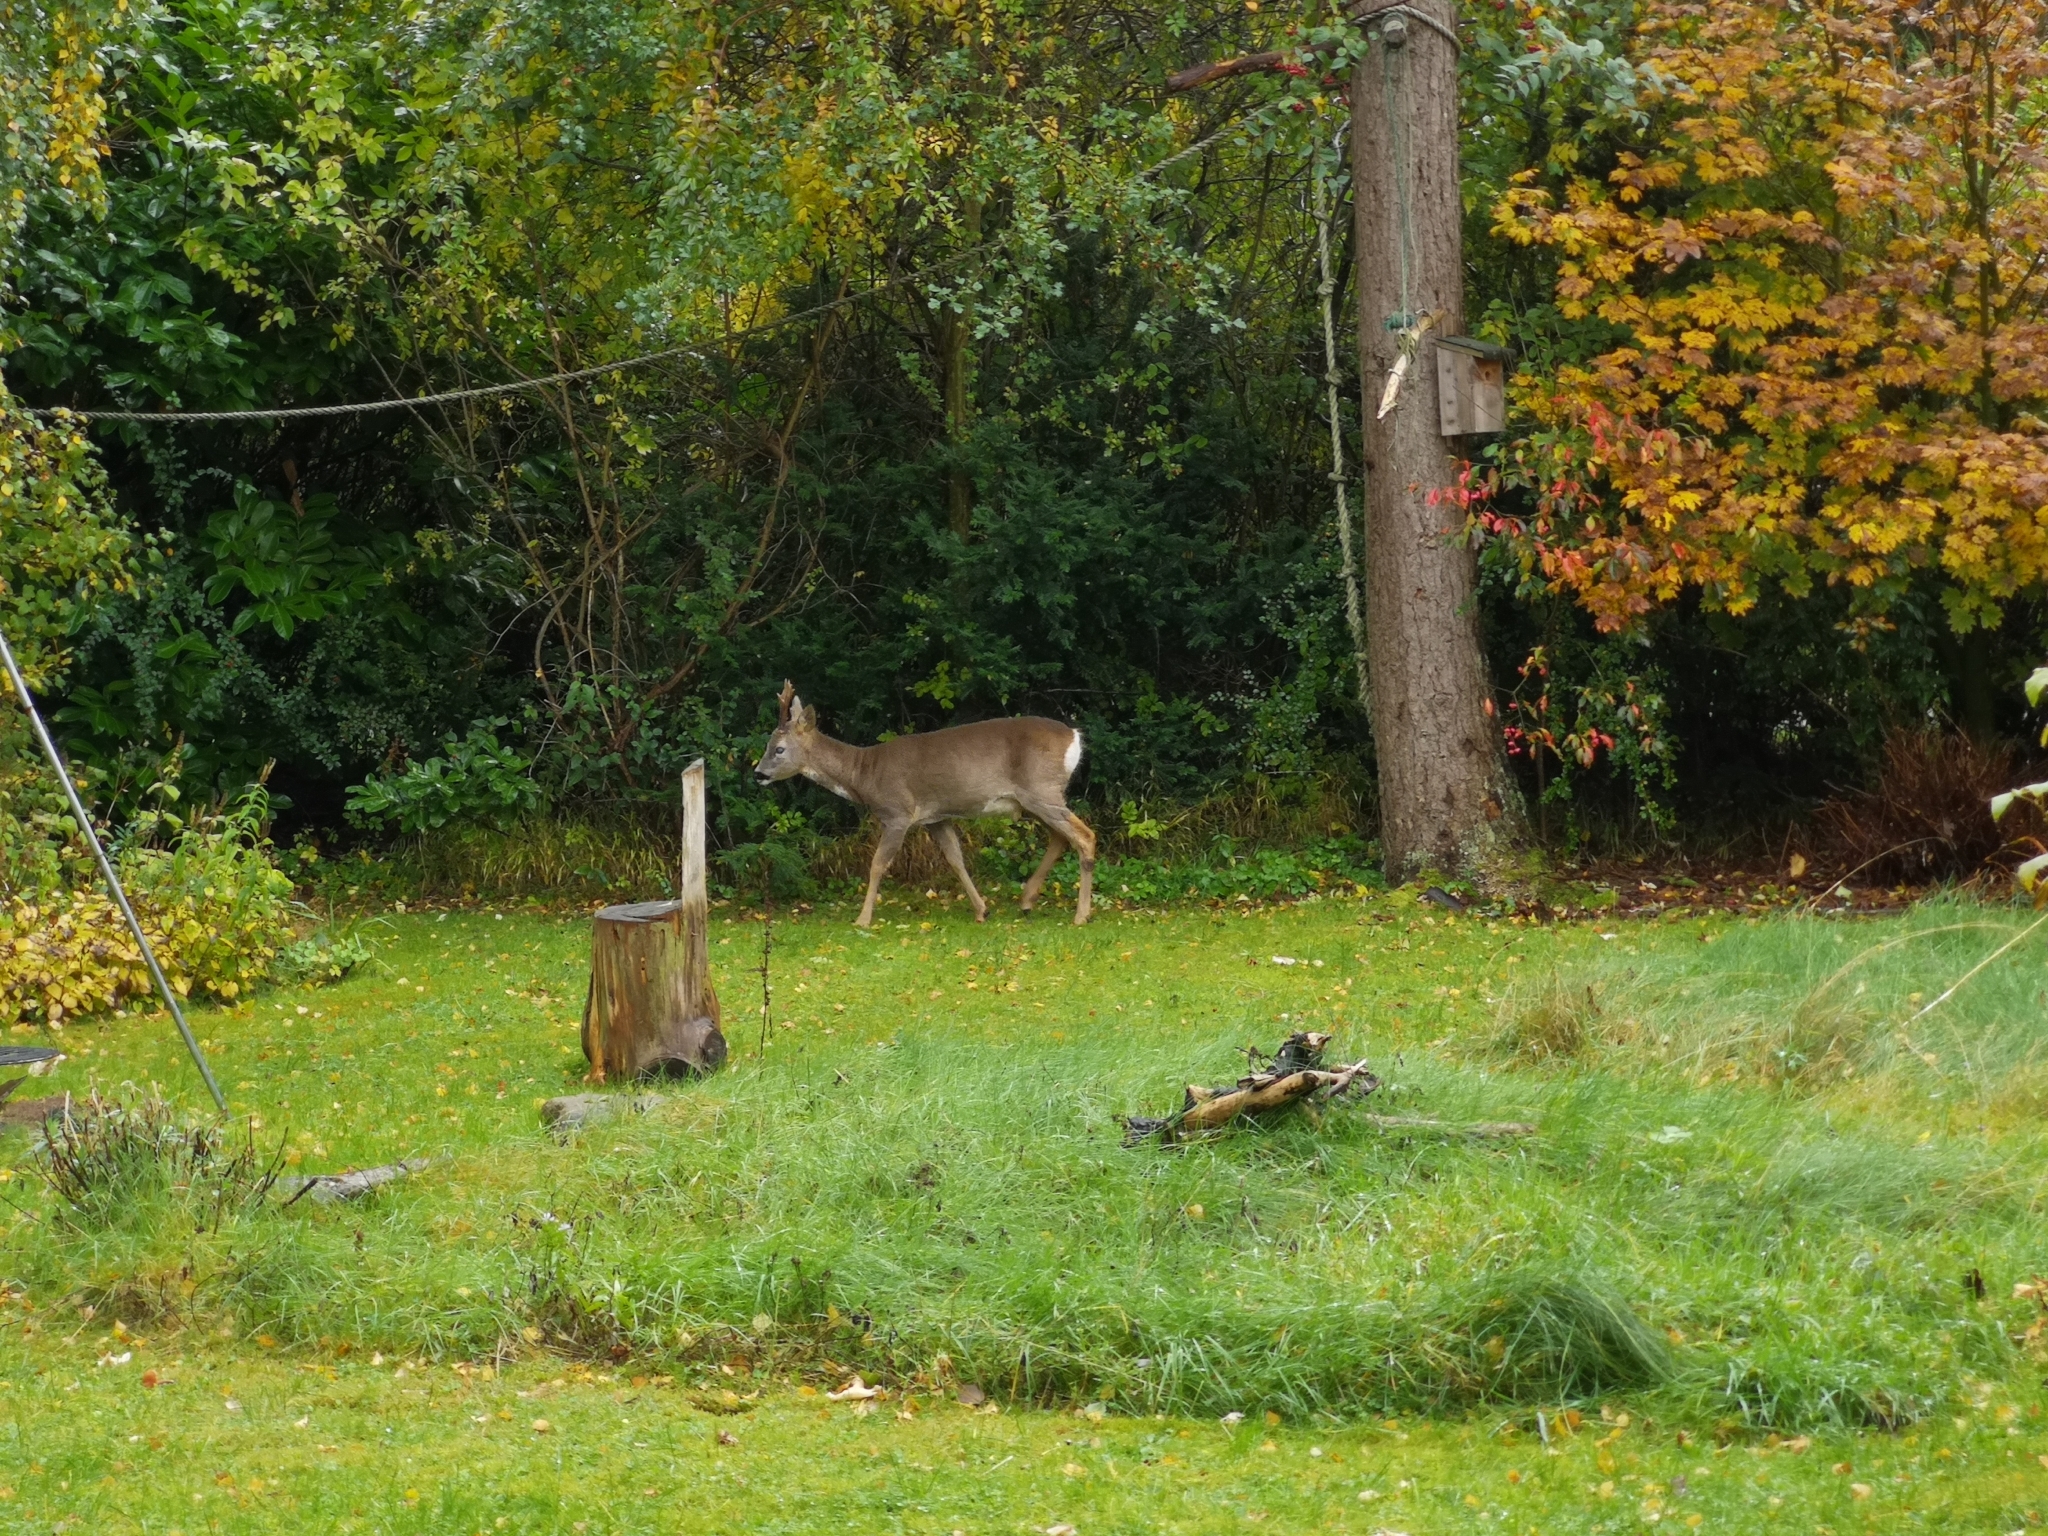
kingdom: Animalia
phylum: Chordata
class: Mammalia
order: Artiodactyla
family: Cervidae
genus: Capreolus
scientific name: Capreolus capreolus
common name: Western roe deer
